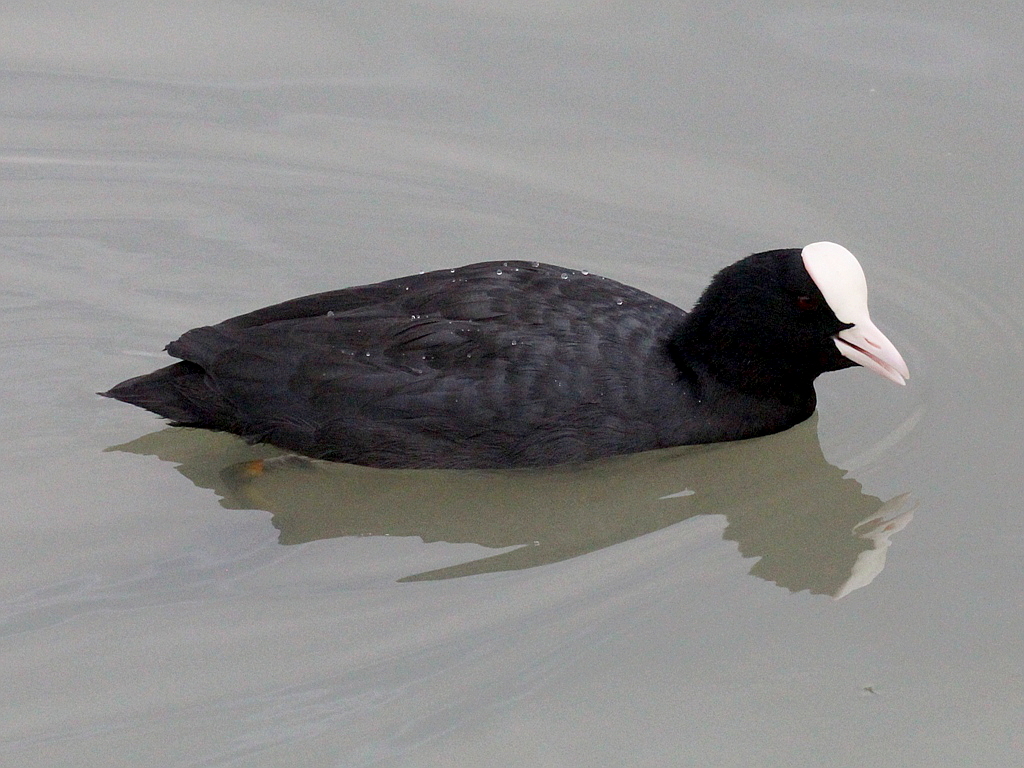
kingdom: Animalia
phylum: Chordata
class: Aves
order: Gruiformes
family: Rallidae
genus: Fulica
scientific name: Fulica atra
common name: Eurasian coot
